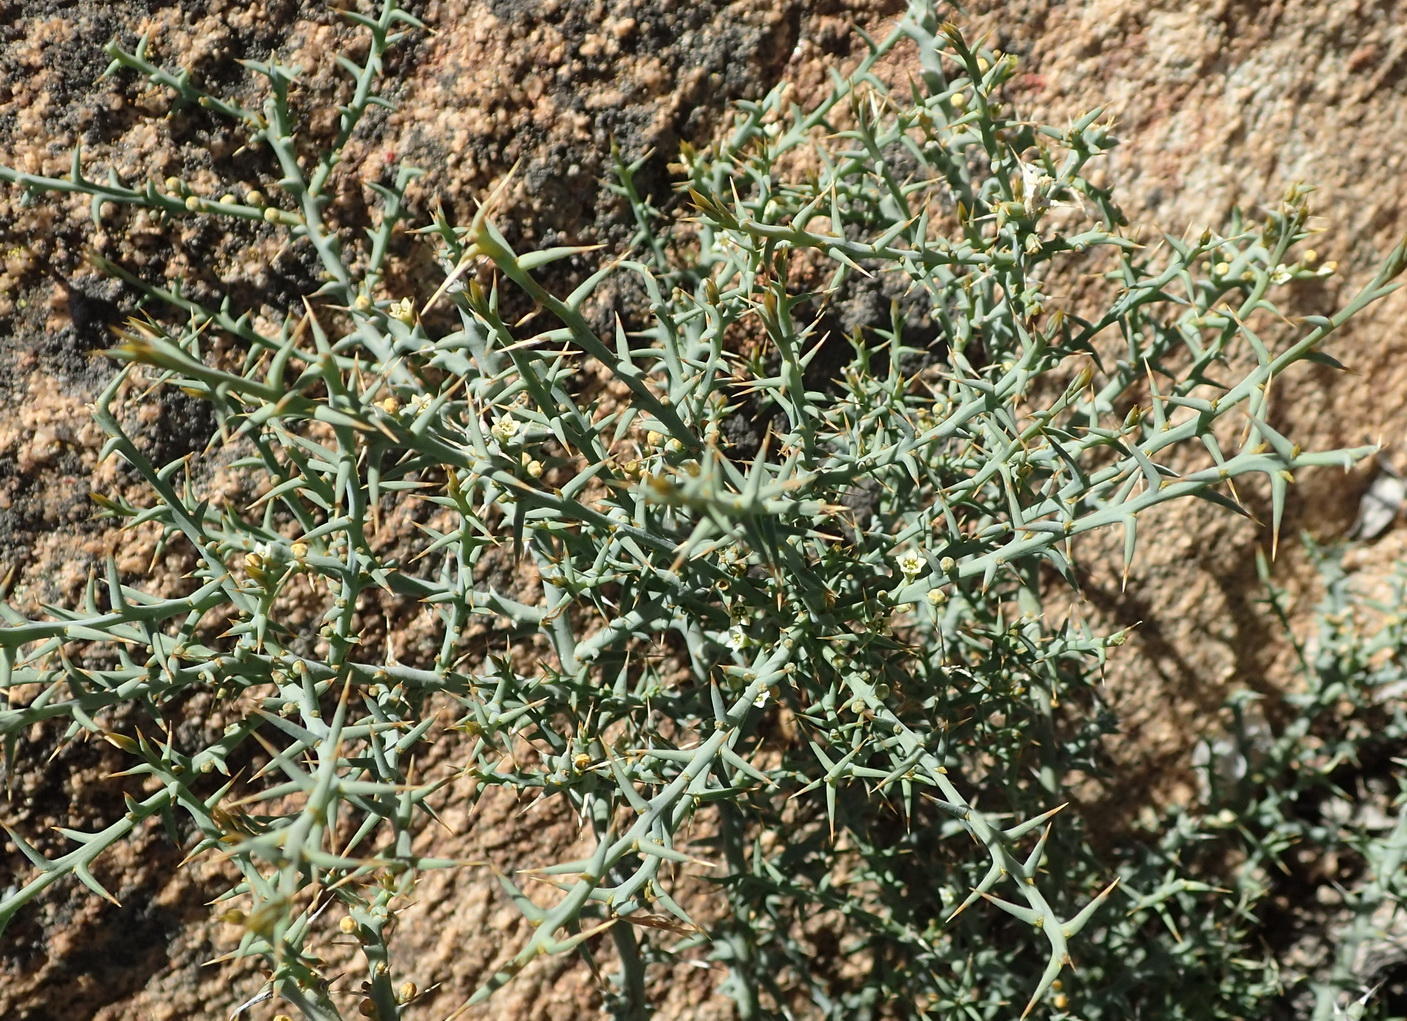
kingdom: Plantae
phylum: Tracheophyta
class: Magnoliopsida
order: Santalales
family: Thesiaceae
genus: Thesium
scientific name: Thesium pungens
